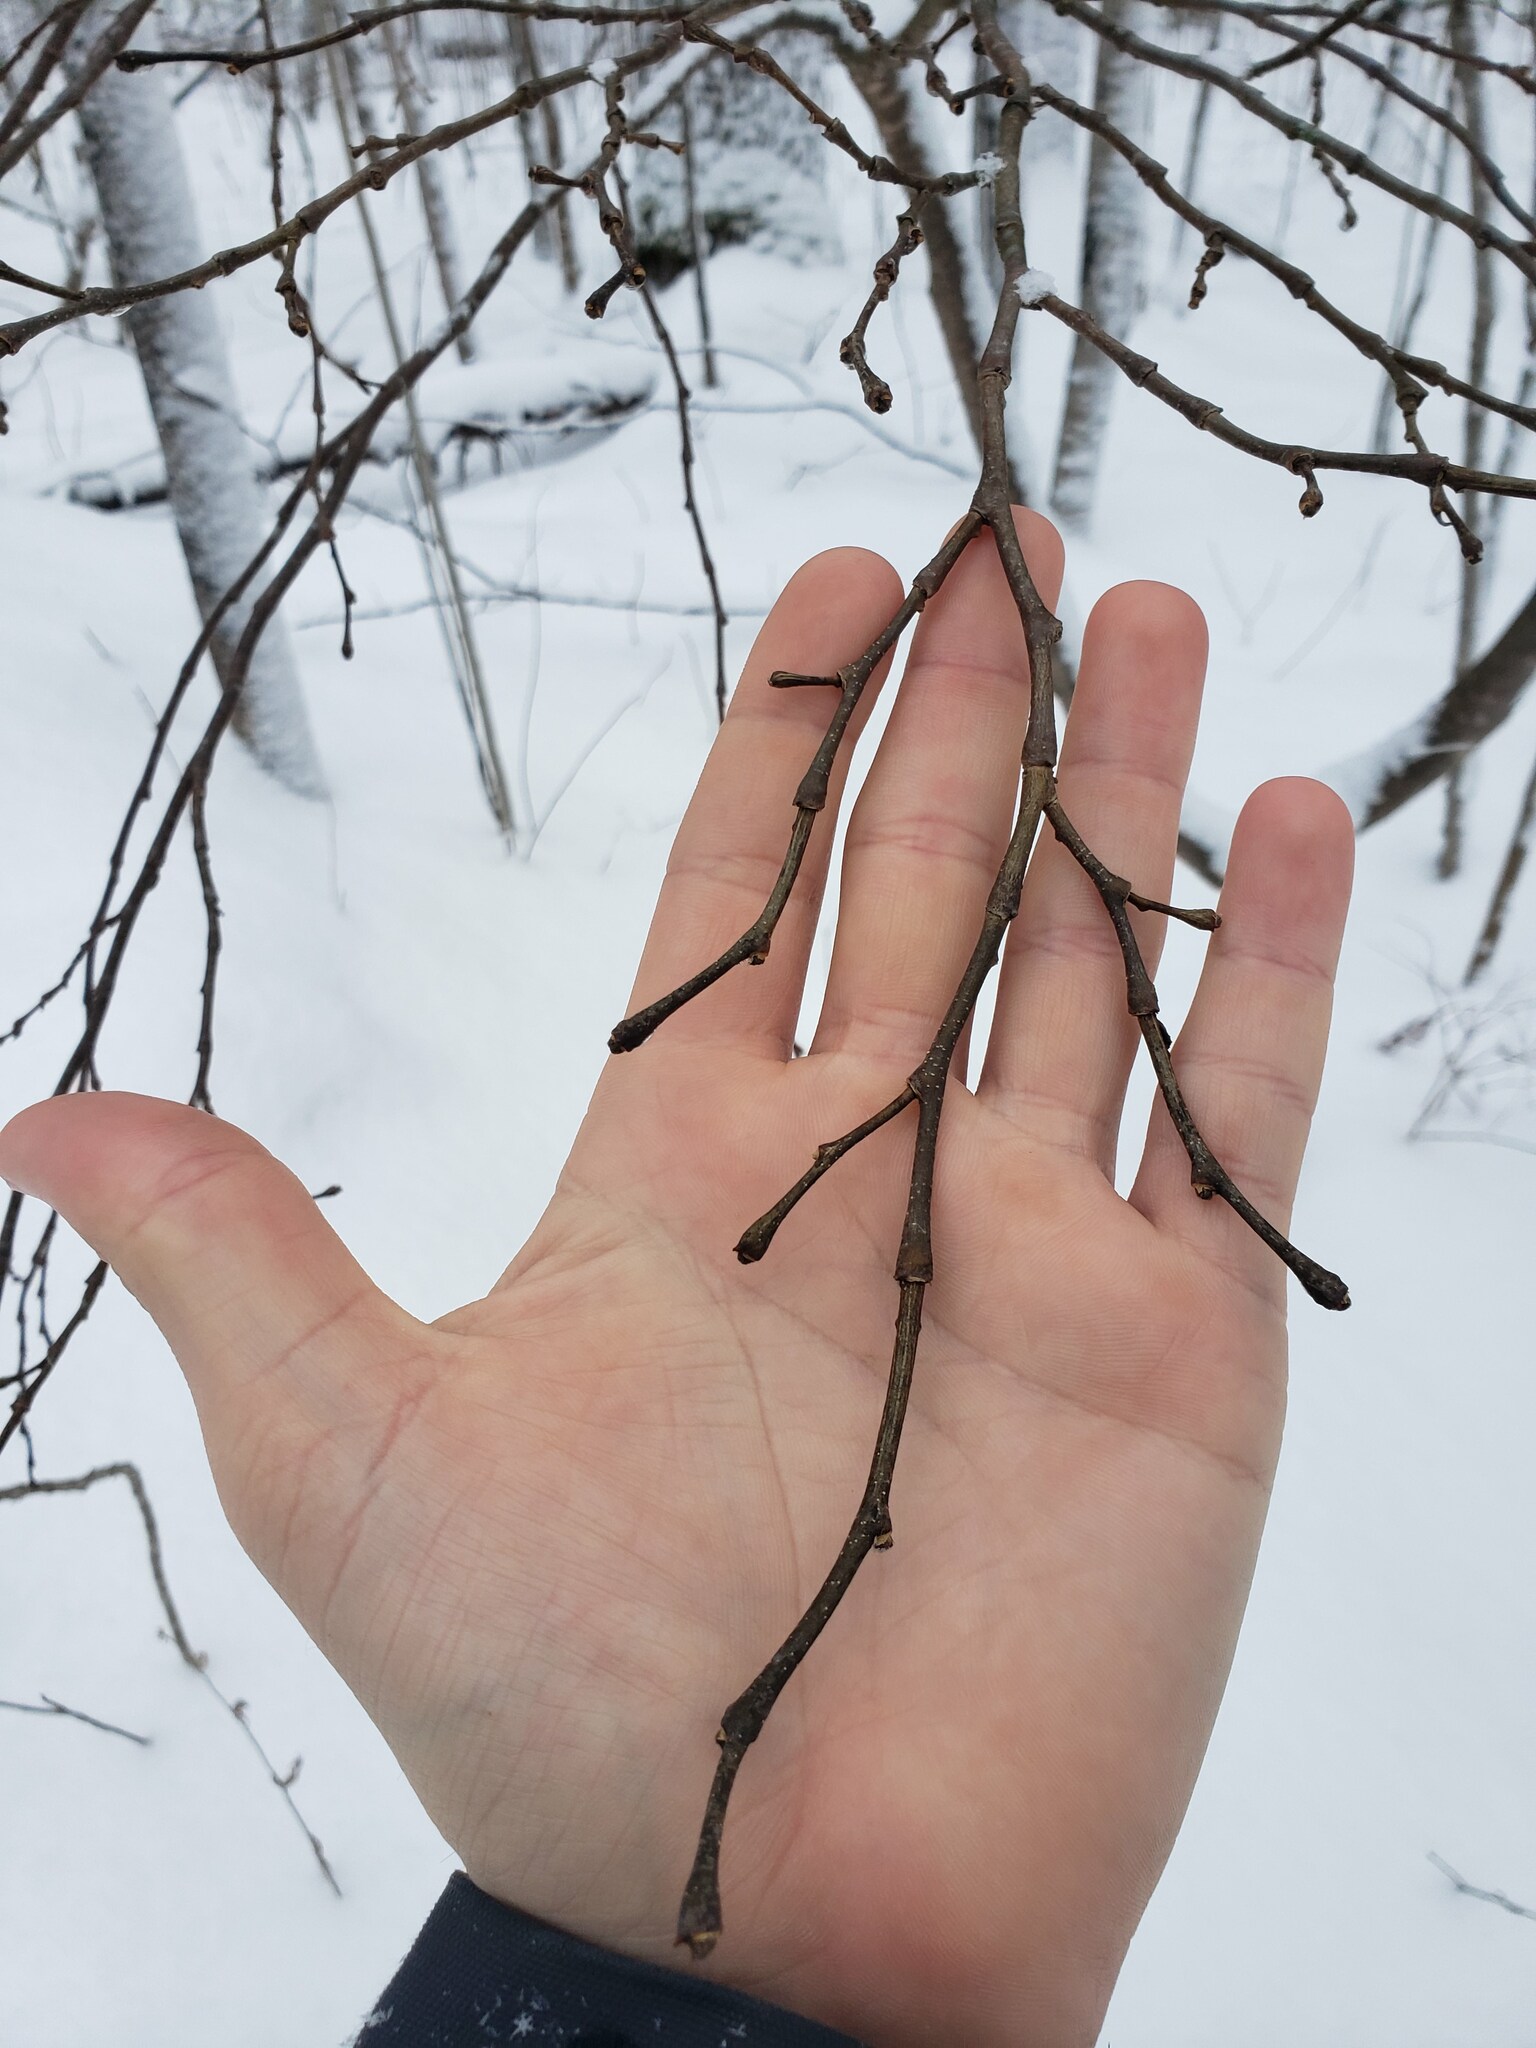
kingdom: Plantae
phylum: Tracheophyta
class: Magnoliopsida
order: Malvales
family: Thymelaeaceae
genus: Dirca
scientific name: Dirca palustris
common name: Leatherwood
